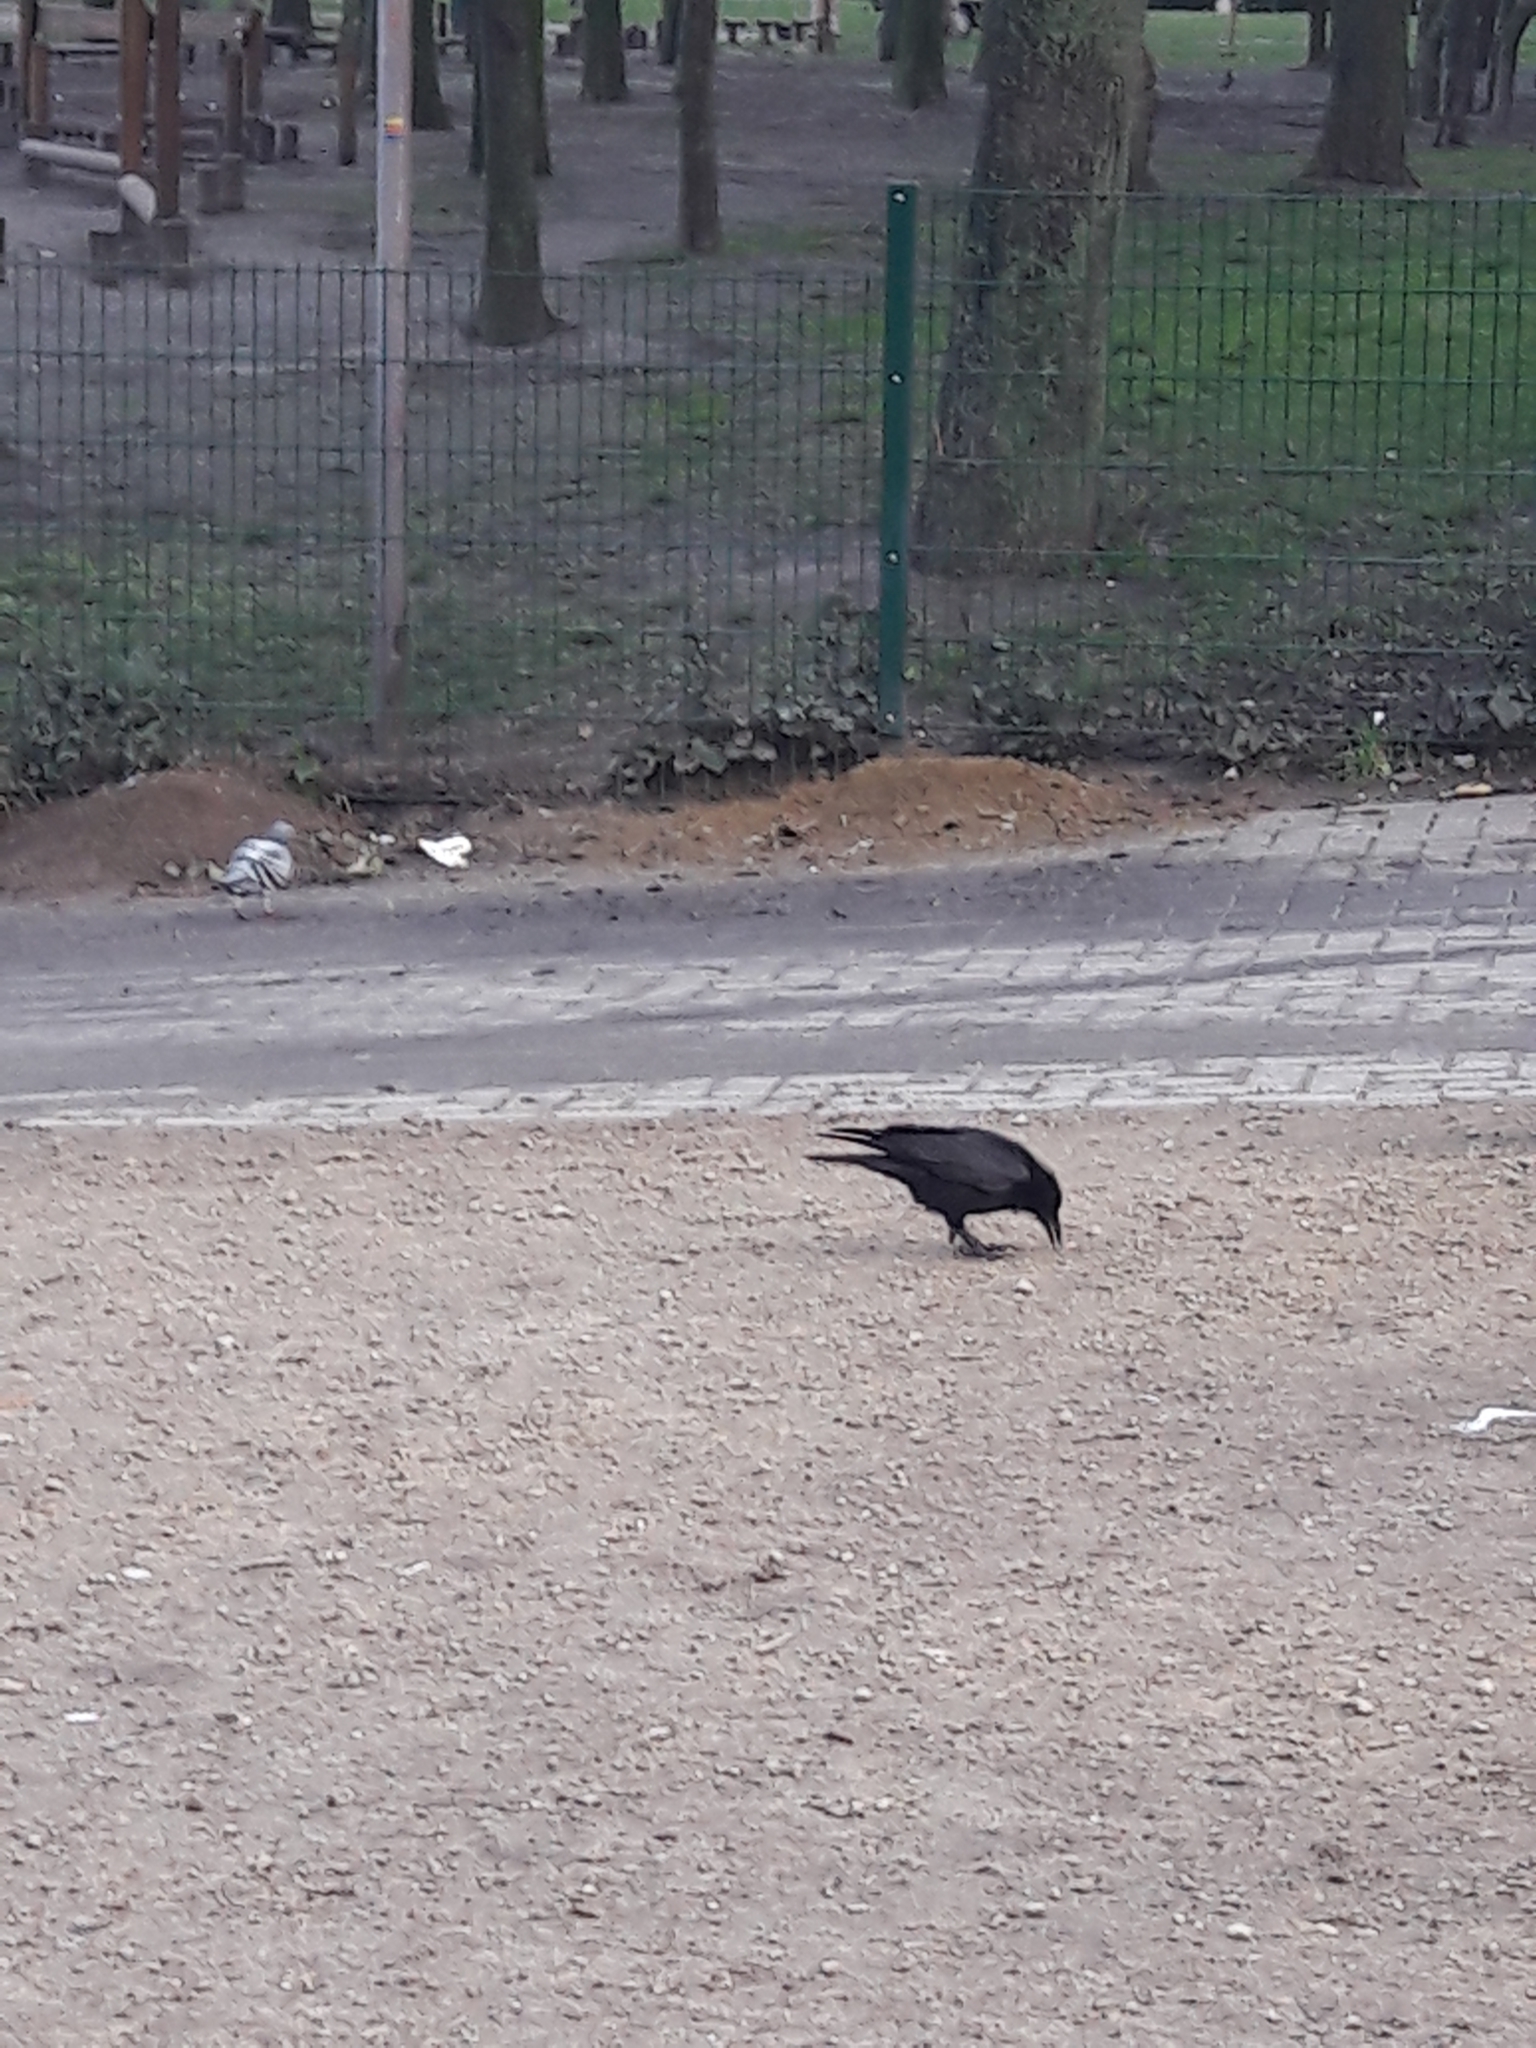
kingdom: Animalia
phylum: Chordata
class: Aves
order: Passeriformes
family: Corvidae
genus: Corvus
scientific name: Corvus corone
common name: Carrion crow
